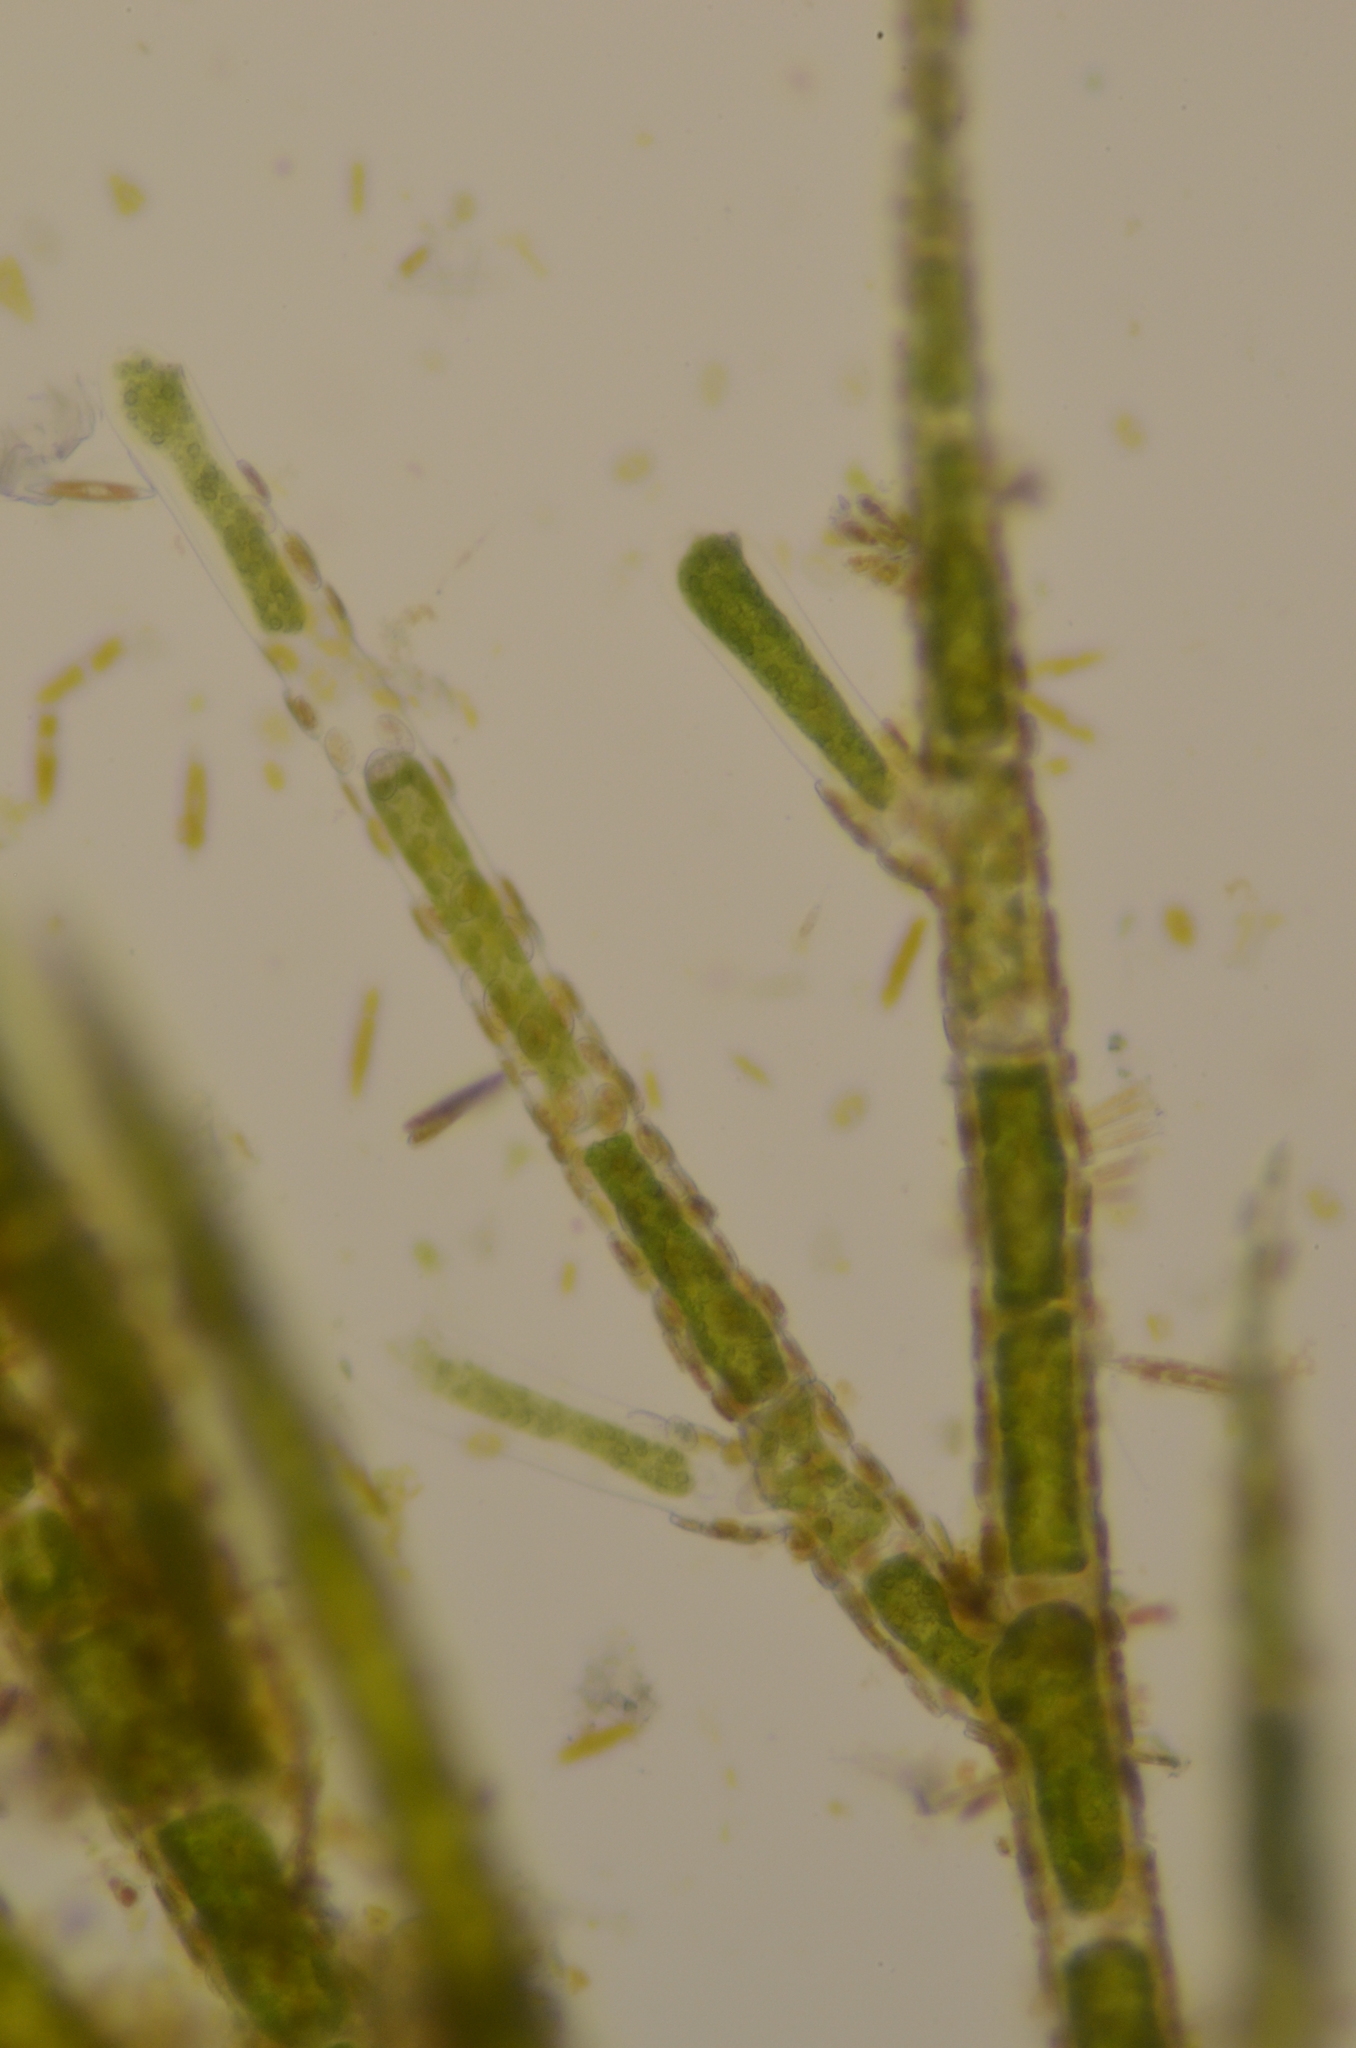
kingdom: Plantae
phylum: Chlorophyta
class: Ulvophyceae
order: Ulotrichales
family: Ulotrichaceae
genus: Acrosiphonia
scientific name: Acrosiphonia arcta
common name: Green tarantula weed
